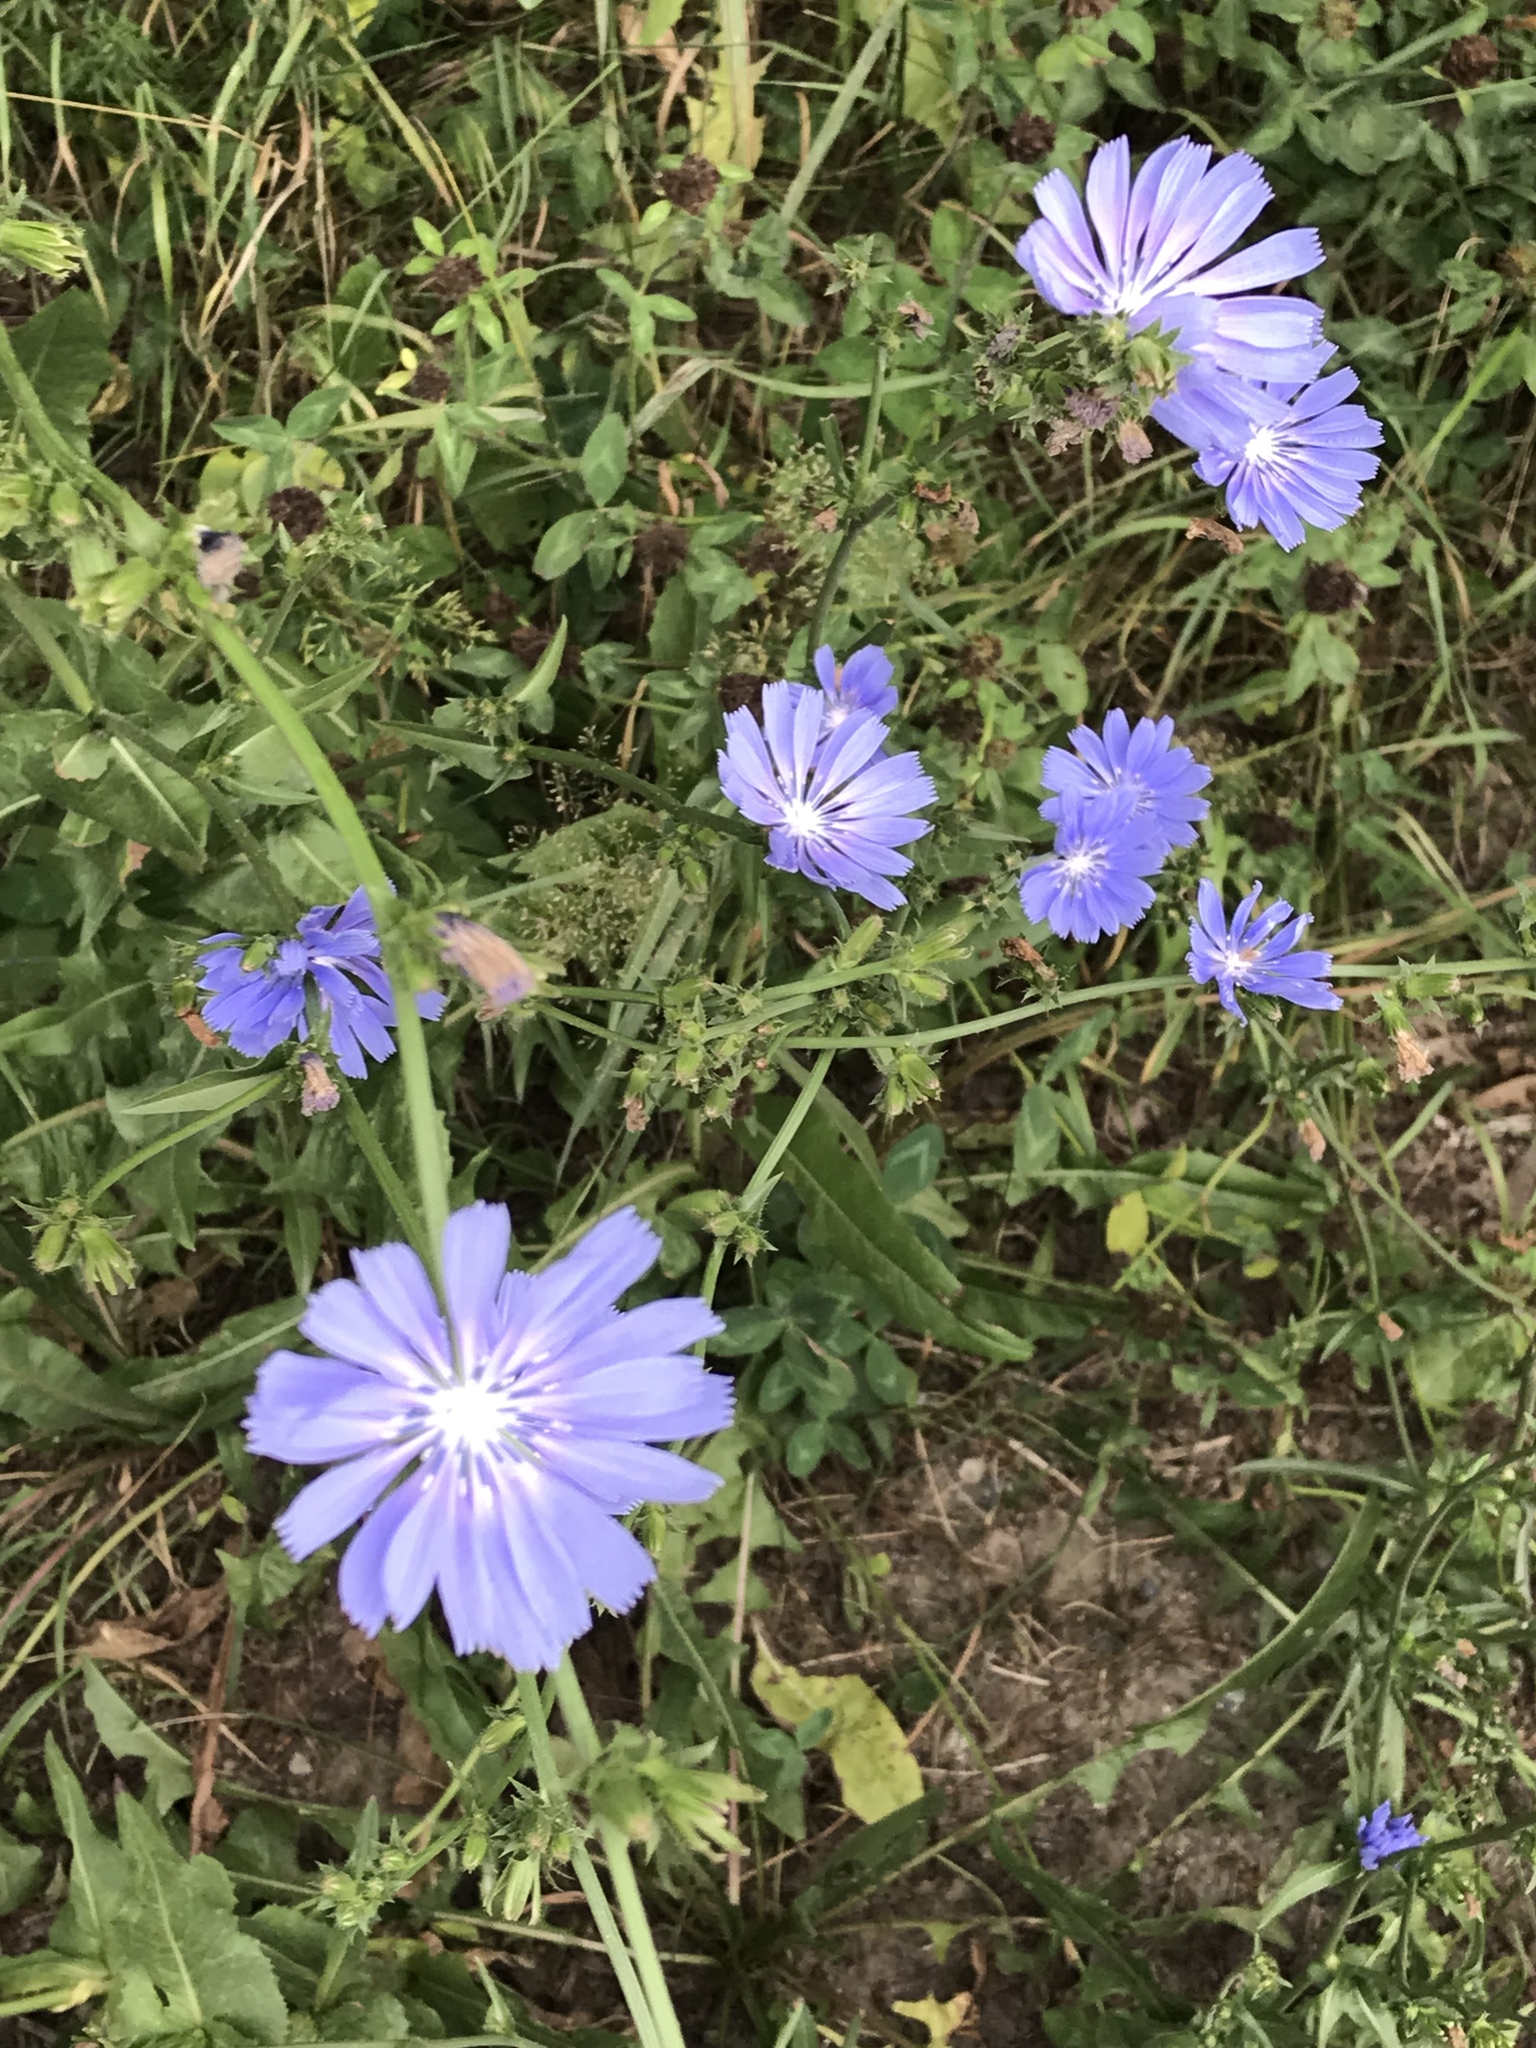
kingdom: Plantae
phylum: Tracheophyta
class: Magnoliopsida
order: Asterales
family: Asteraceae
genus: Cichorium
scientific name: Cichorium intybus
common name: Chicory
